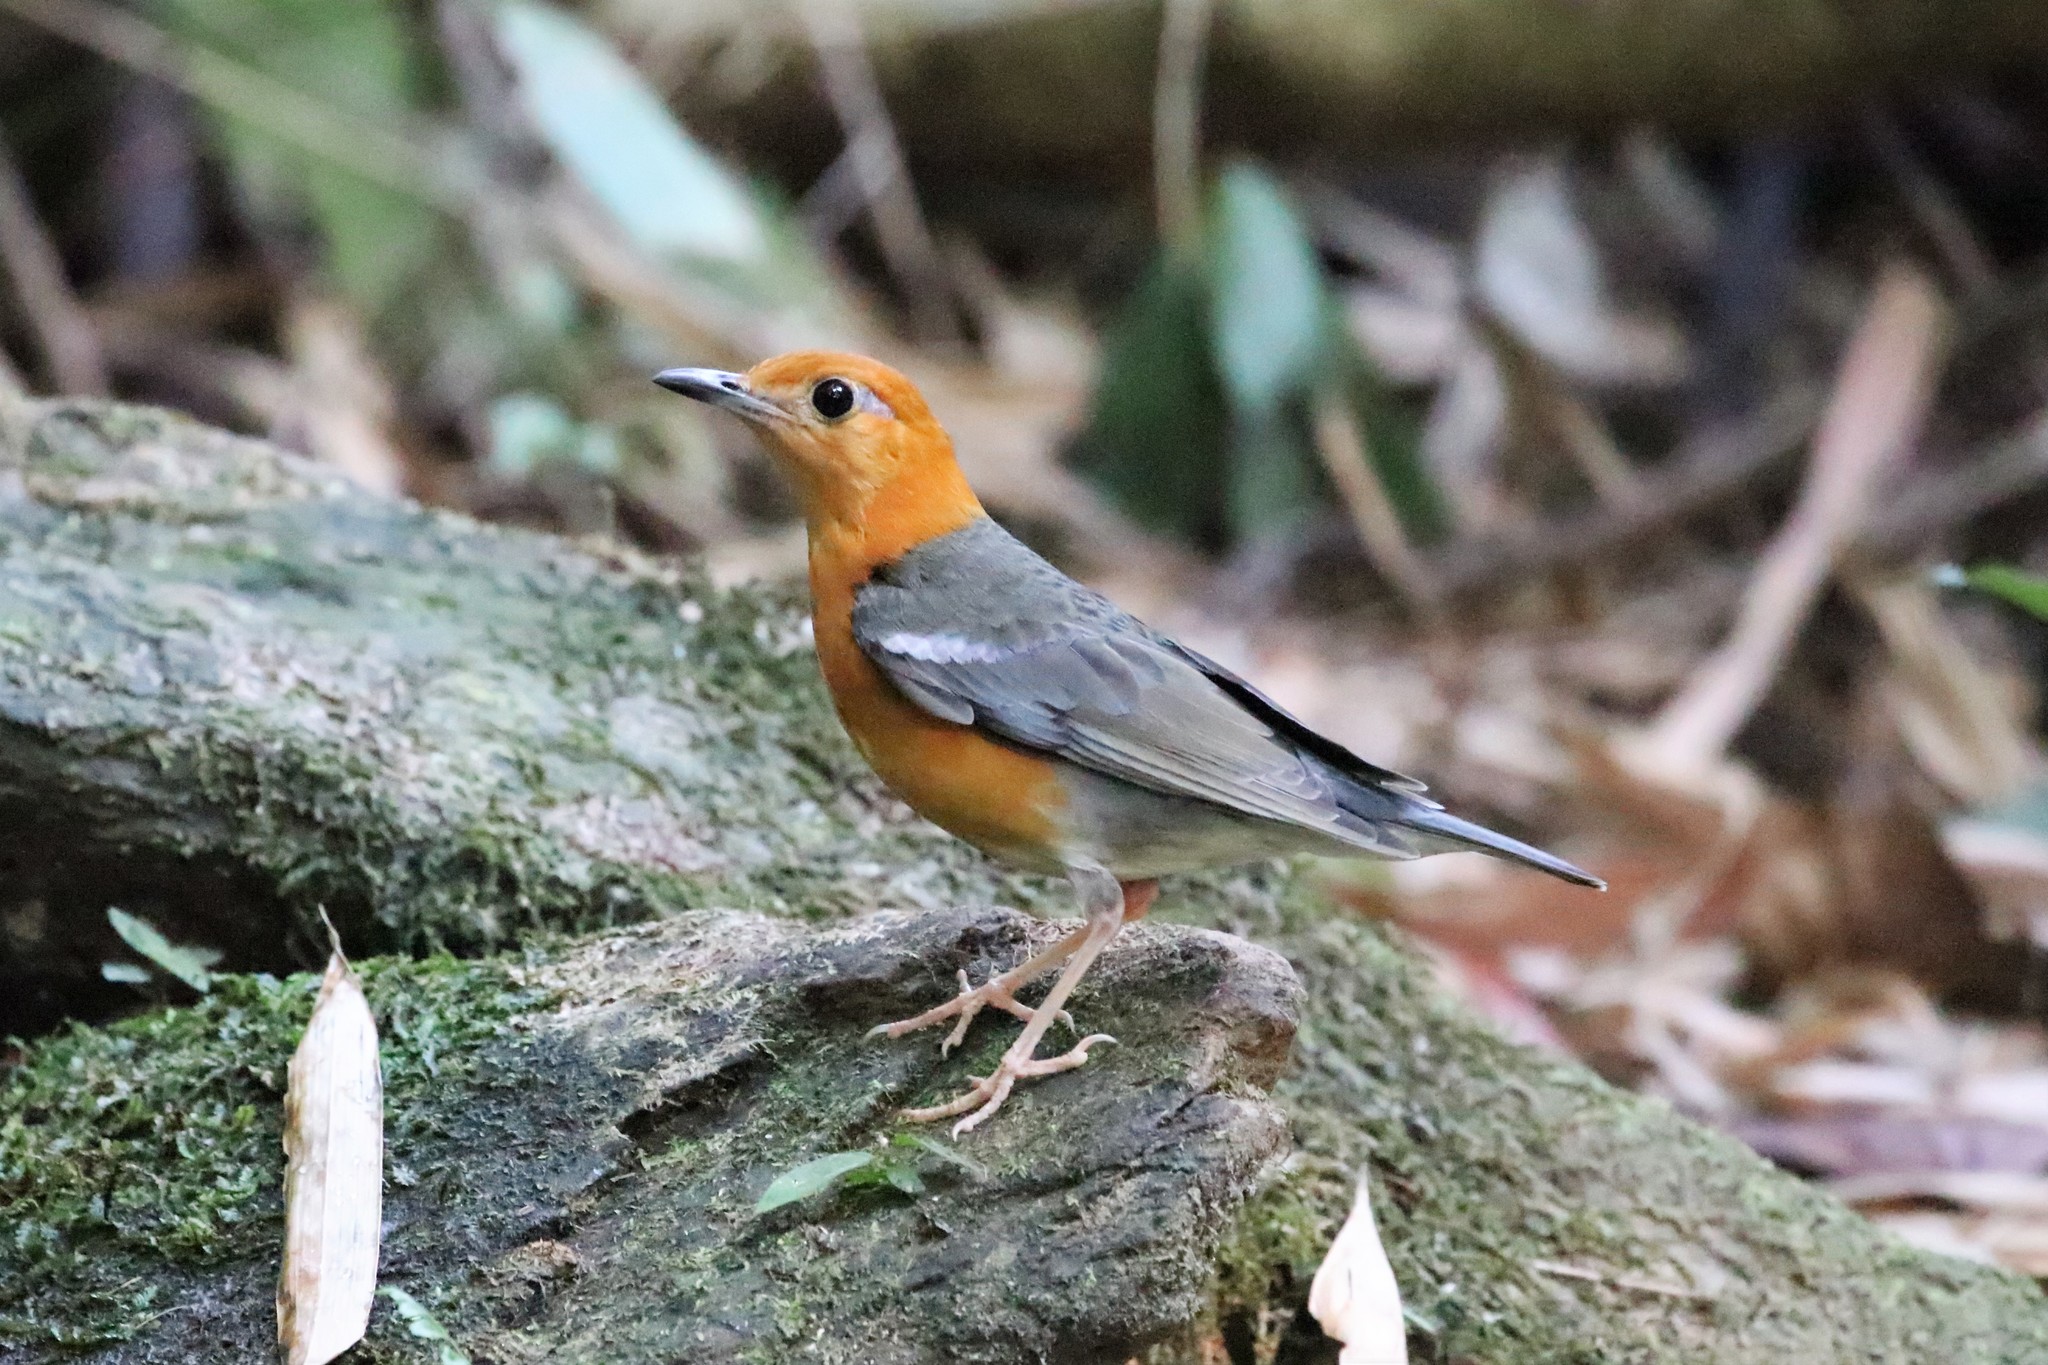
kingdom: Animalia
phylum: Chordata
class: Aves
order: Passeriformes
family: Turdidae
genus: Geokichla
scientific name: Geokichla citrina
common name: Orange-headed thrush
